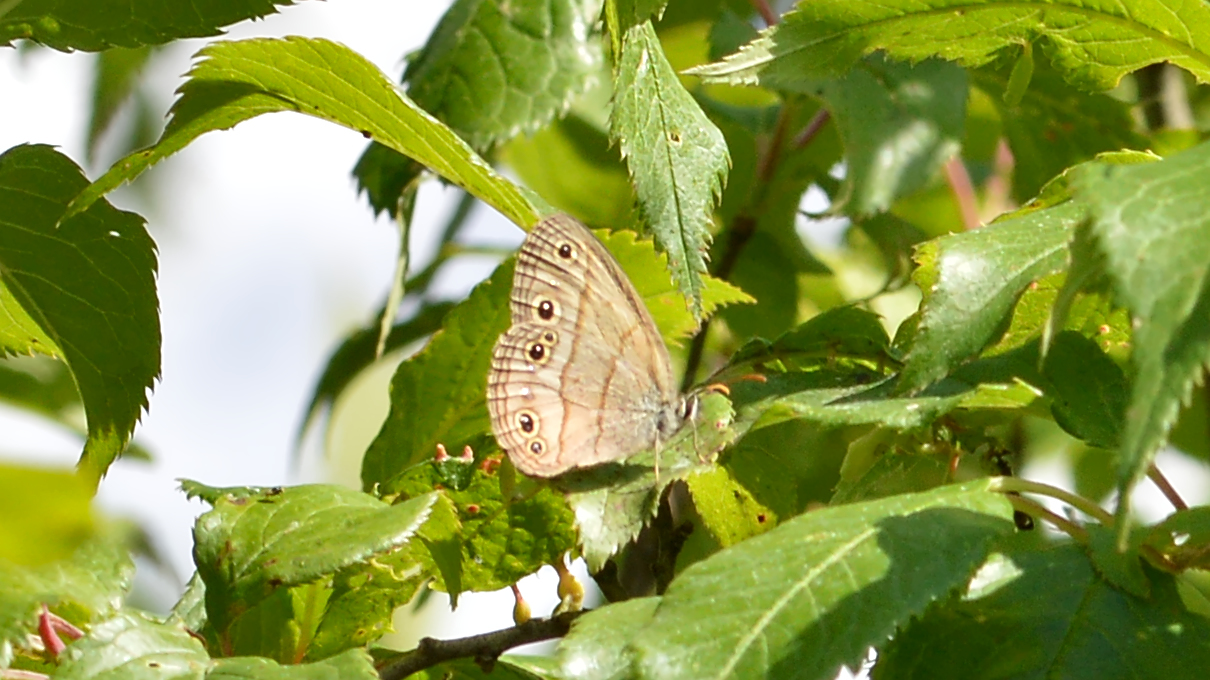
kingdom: Animalia
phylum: Arthropoda
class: Insecta
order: Lepidoptera
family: Nymphalidae
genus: Euptychia
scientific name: Euptychia cymela
